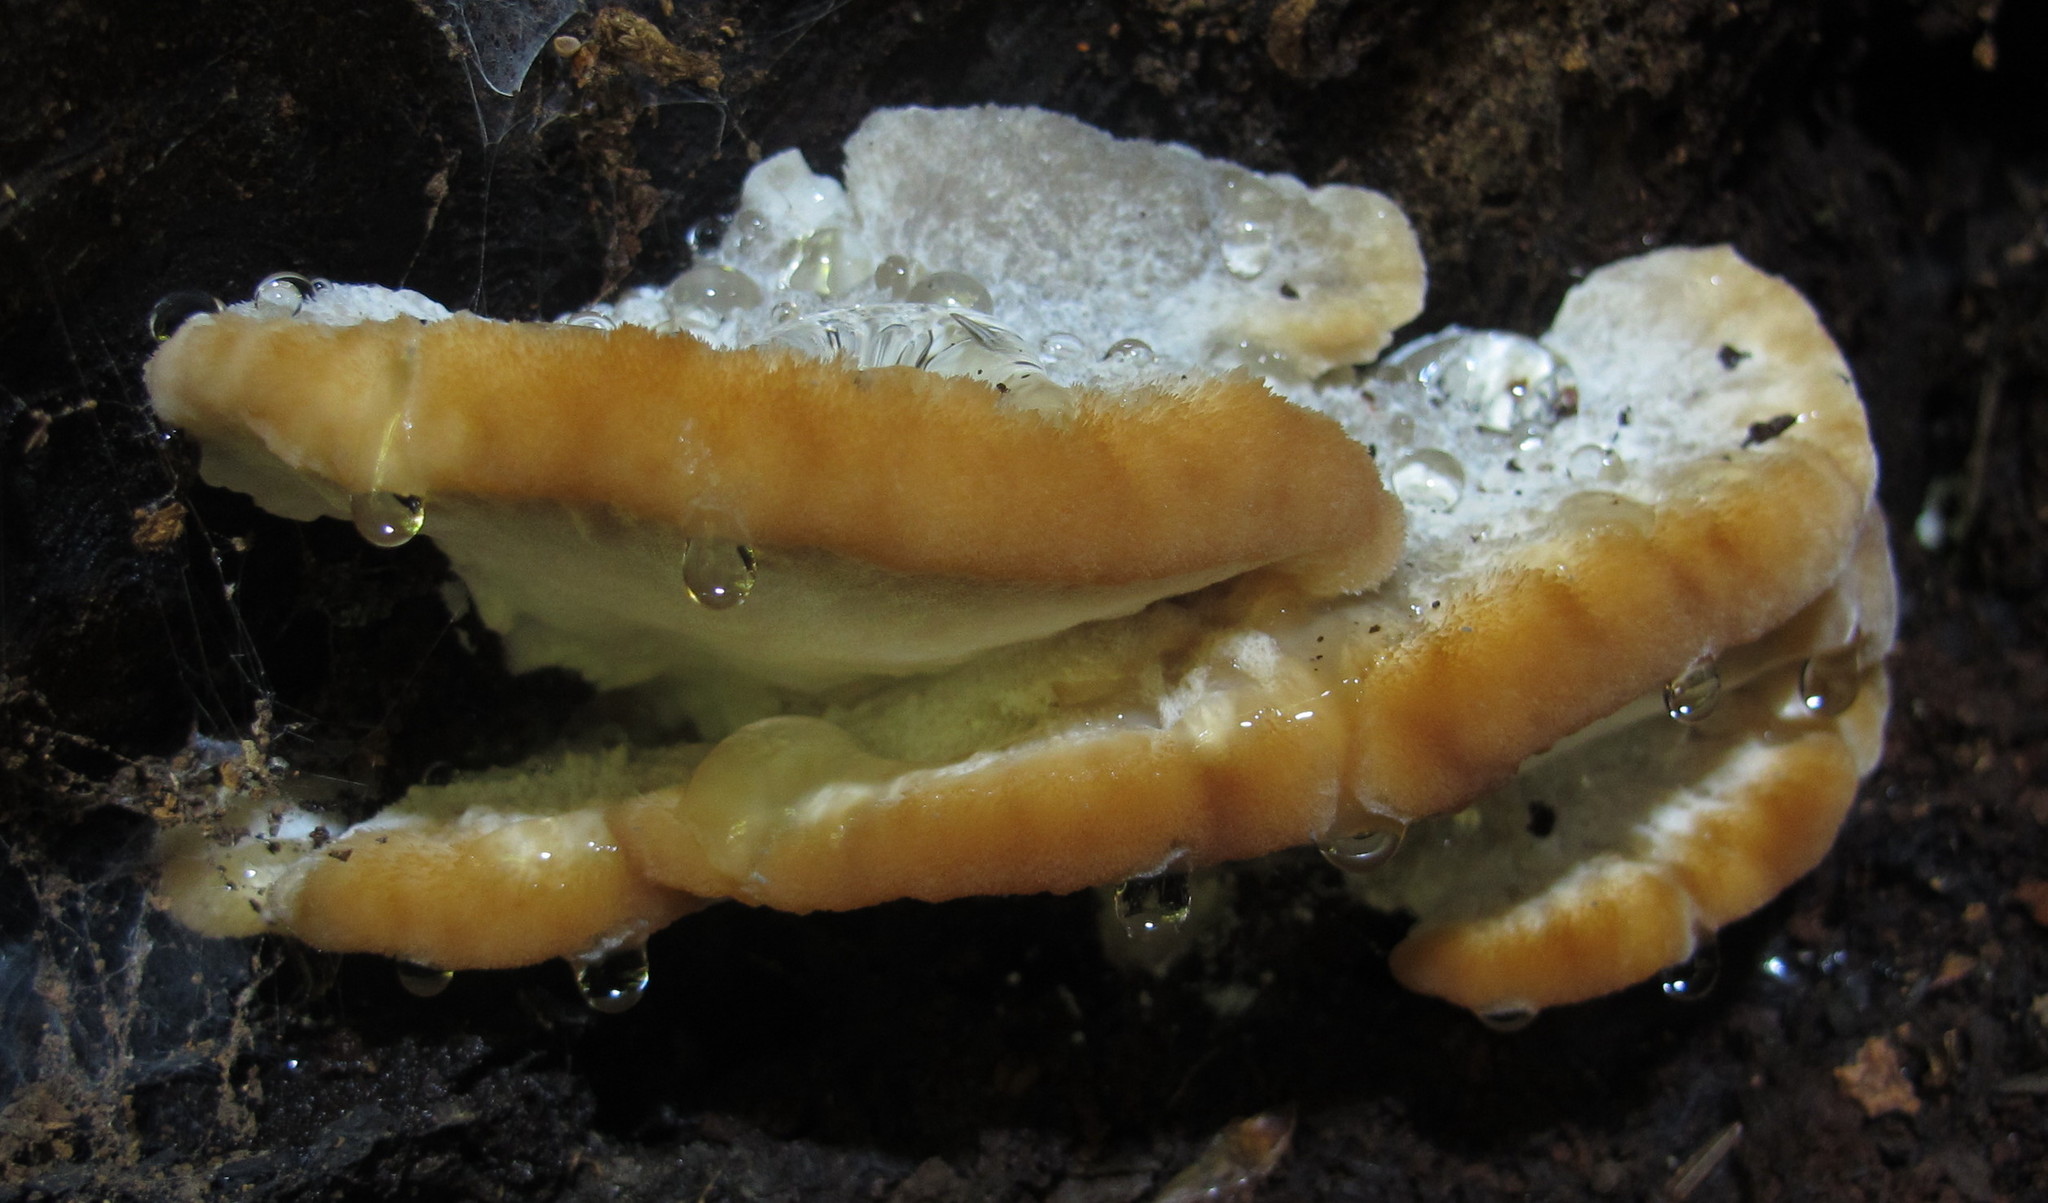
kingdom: Fungi
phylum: Basidiomycota
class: Agaricomycetes
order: Polyporales
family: Fomitopsidaceae
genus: Niveoporofomes
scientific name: Niveoporofomes spraguei
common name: Green cheese polypore
